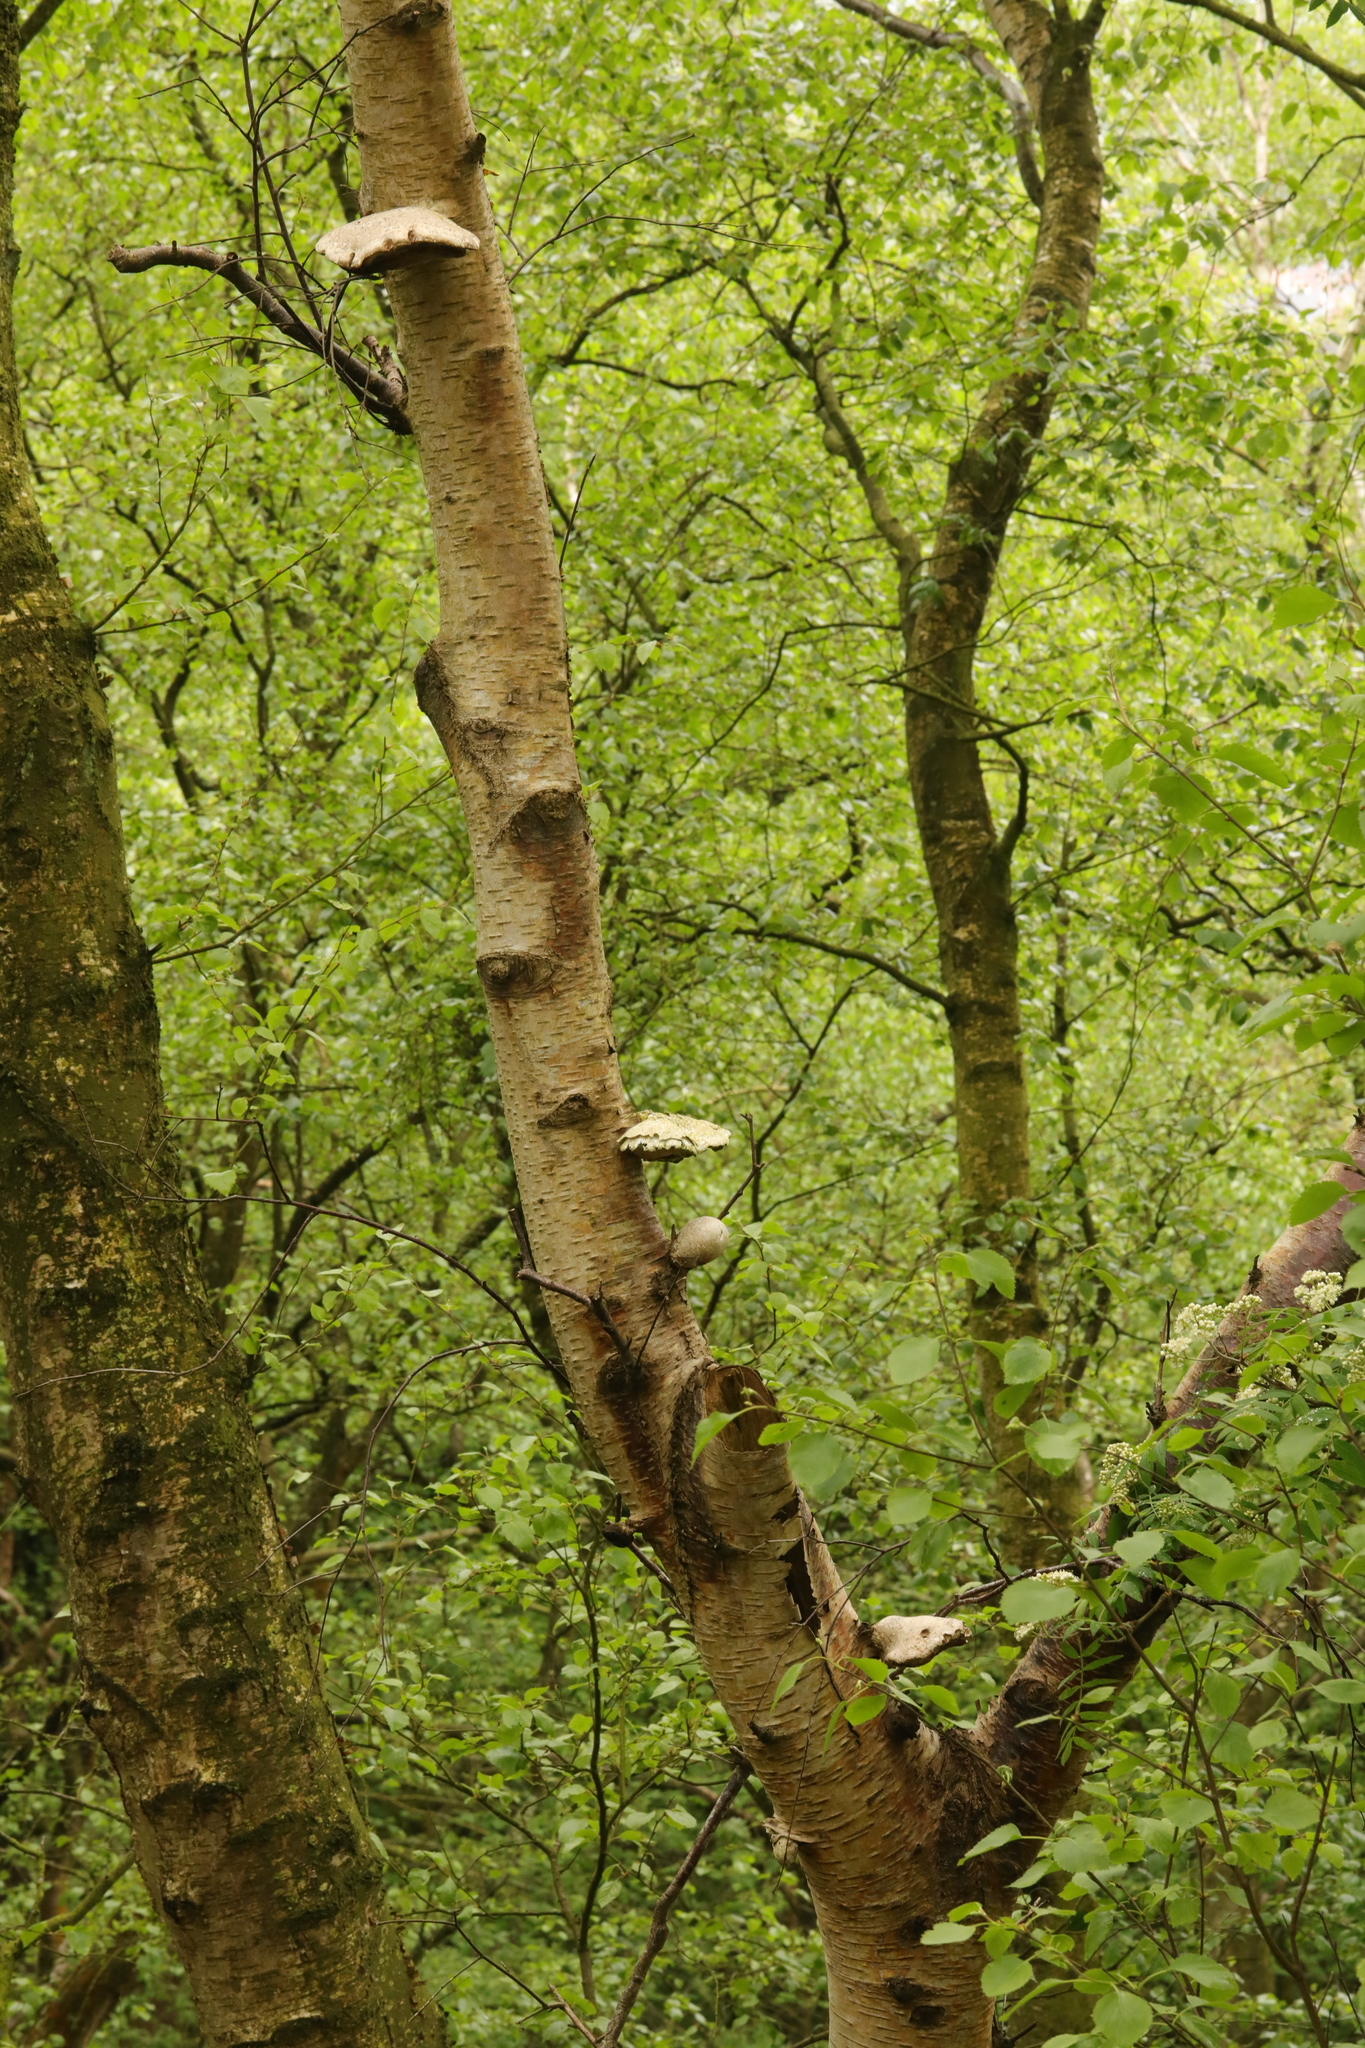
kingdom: Fungi
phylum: Basidiomycota
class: Agaricomycetes
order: Polyporales
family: Fomitopsidaceae
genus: Fomitopsis
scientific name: Fomitopsis betulina
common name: Birch polypore
